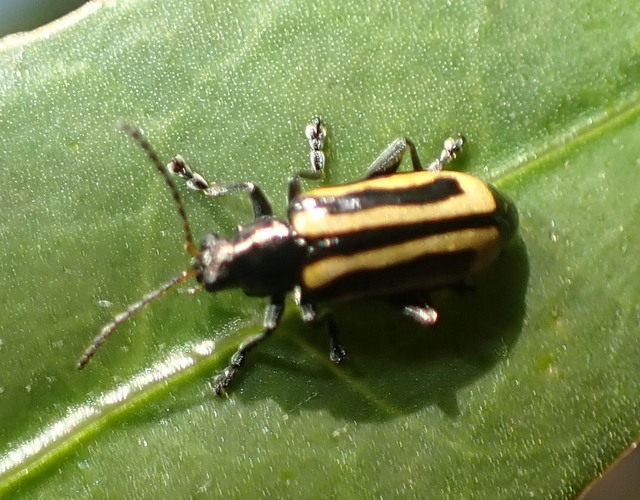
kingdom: Animalia
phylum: Arthropoda
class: Insecta
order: Coleoptera
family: Chrysomelidae
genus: Agasicles
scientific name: Agasicles hygrophila
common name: Alligatorweed flea beetle
